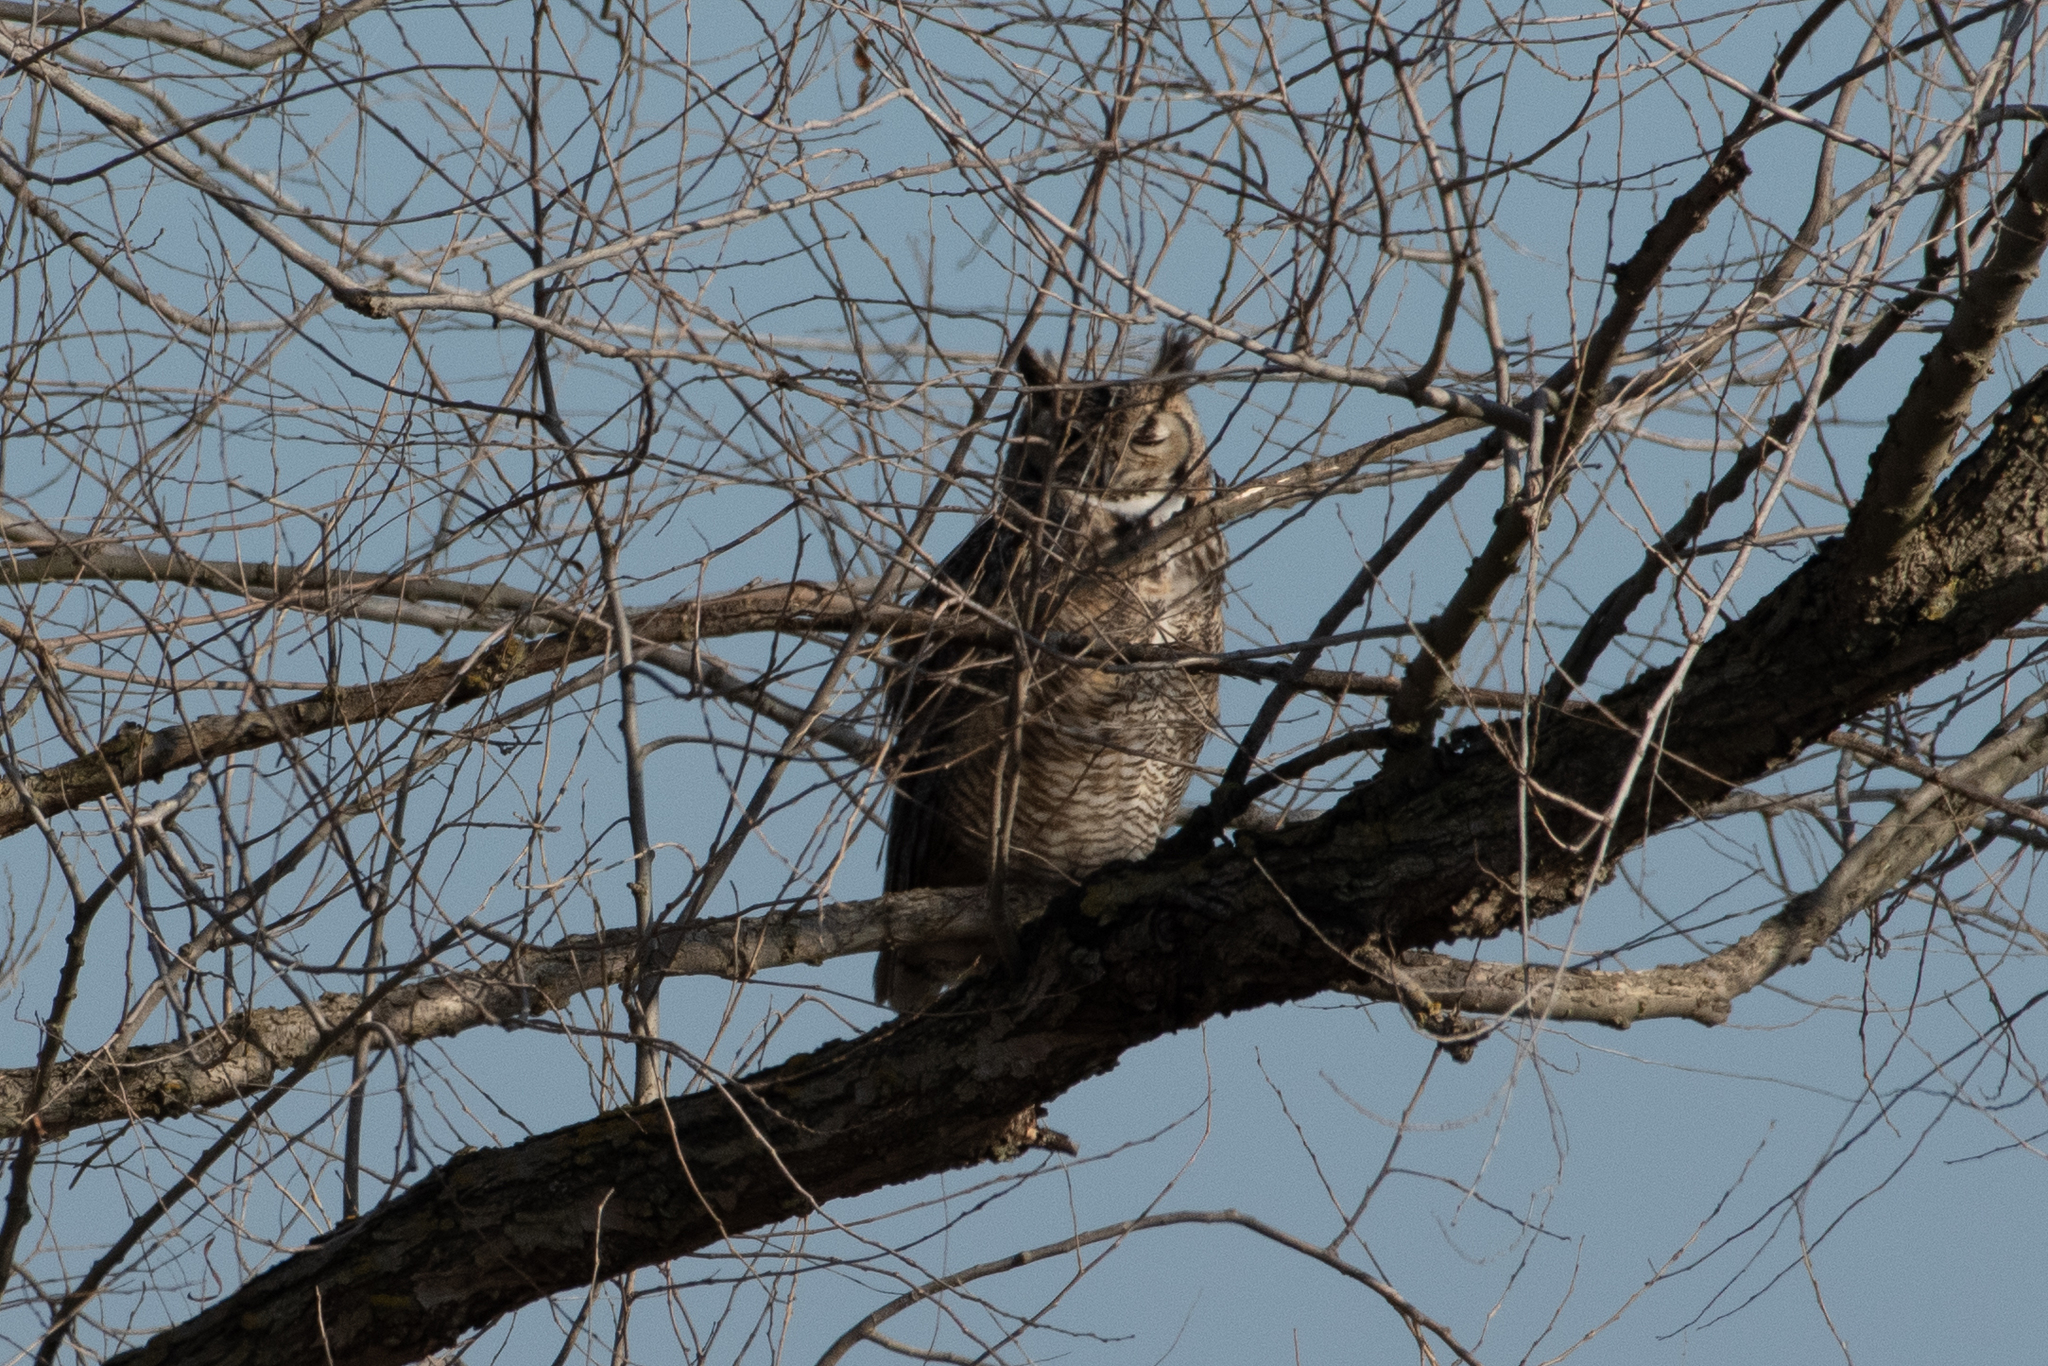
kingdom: Animalia
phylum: Chordata
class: Aves
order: Strigiformes
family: Strigidae
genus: Bubo
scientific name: Bubo virginianus
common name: Great horned owl
